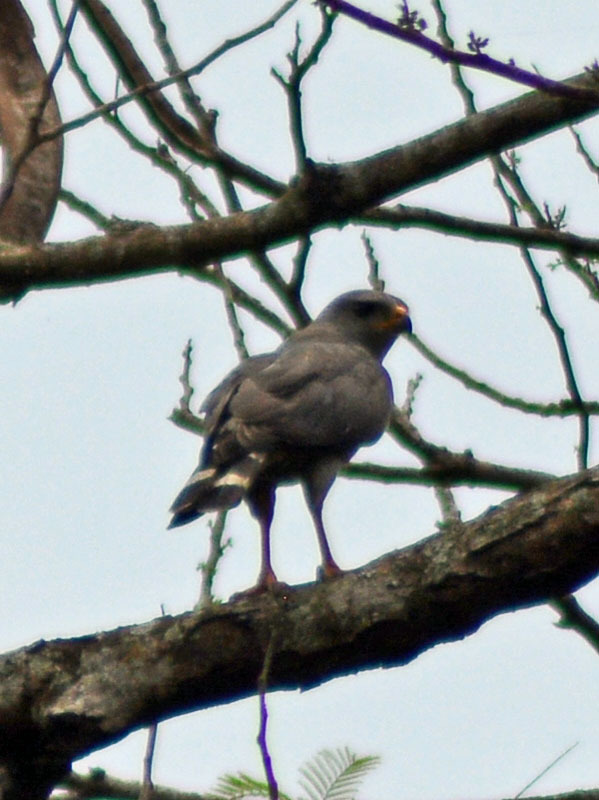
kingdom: Animalia
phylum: Chordata
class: Aves
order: Accipitriformes
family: Accipitridae
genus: Buteo
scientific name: Buteo nitidus
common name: Grey-lined hawk
